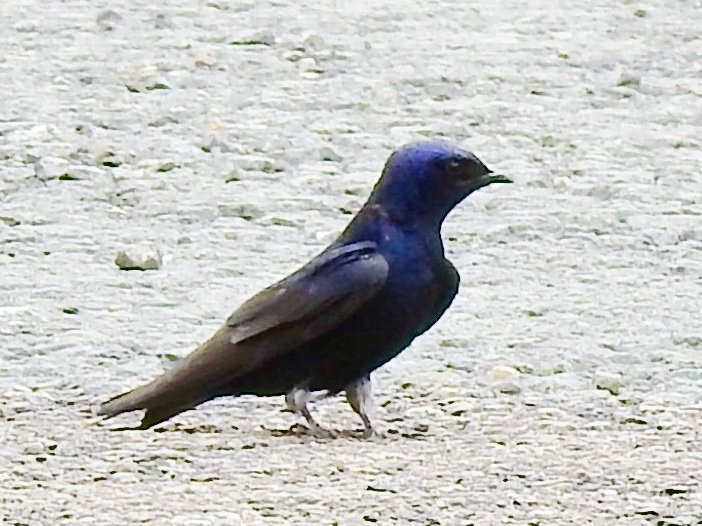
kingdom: Animalia
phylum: Chordata
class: Aves
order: Passeriformes
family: Hirundinidae
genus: Progne
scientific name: Progne subis
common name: Purple martin
